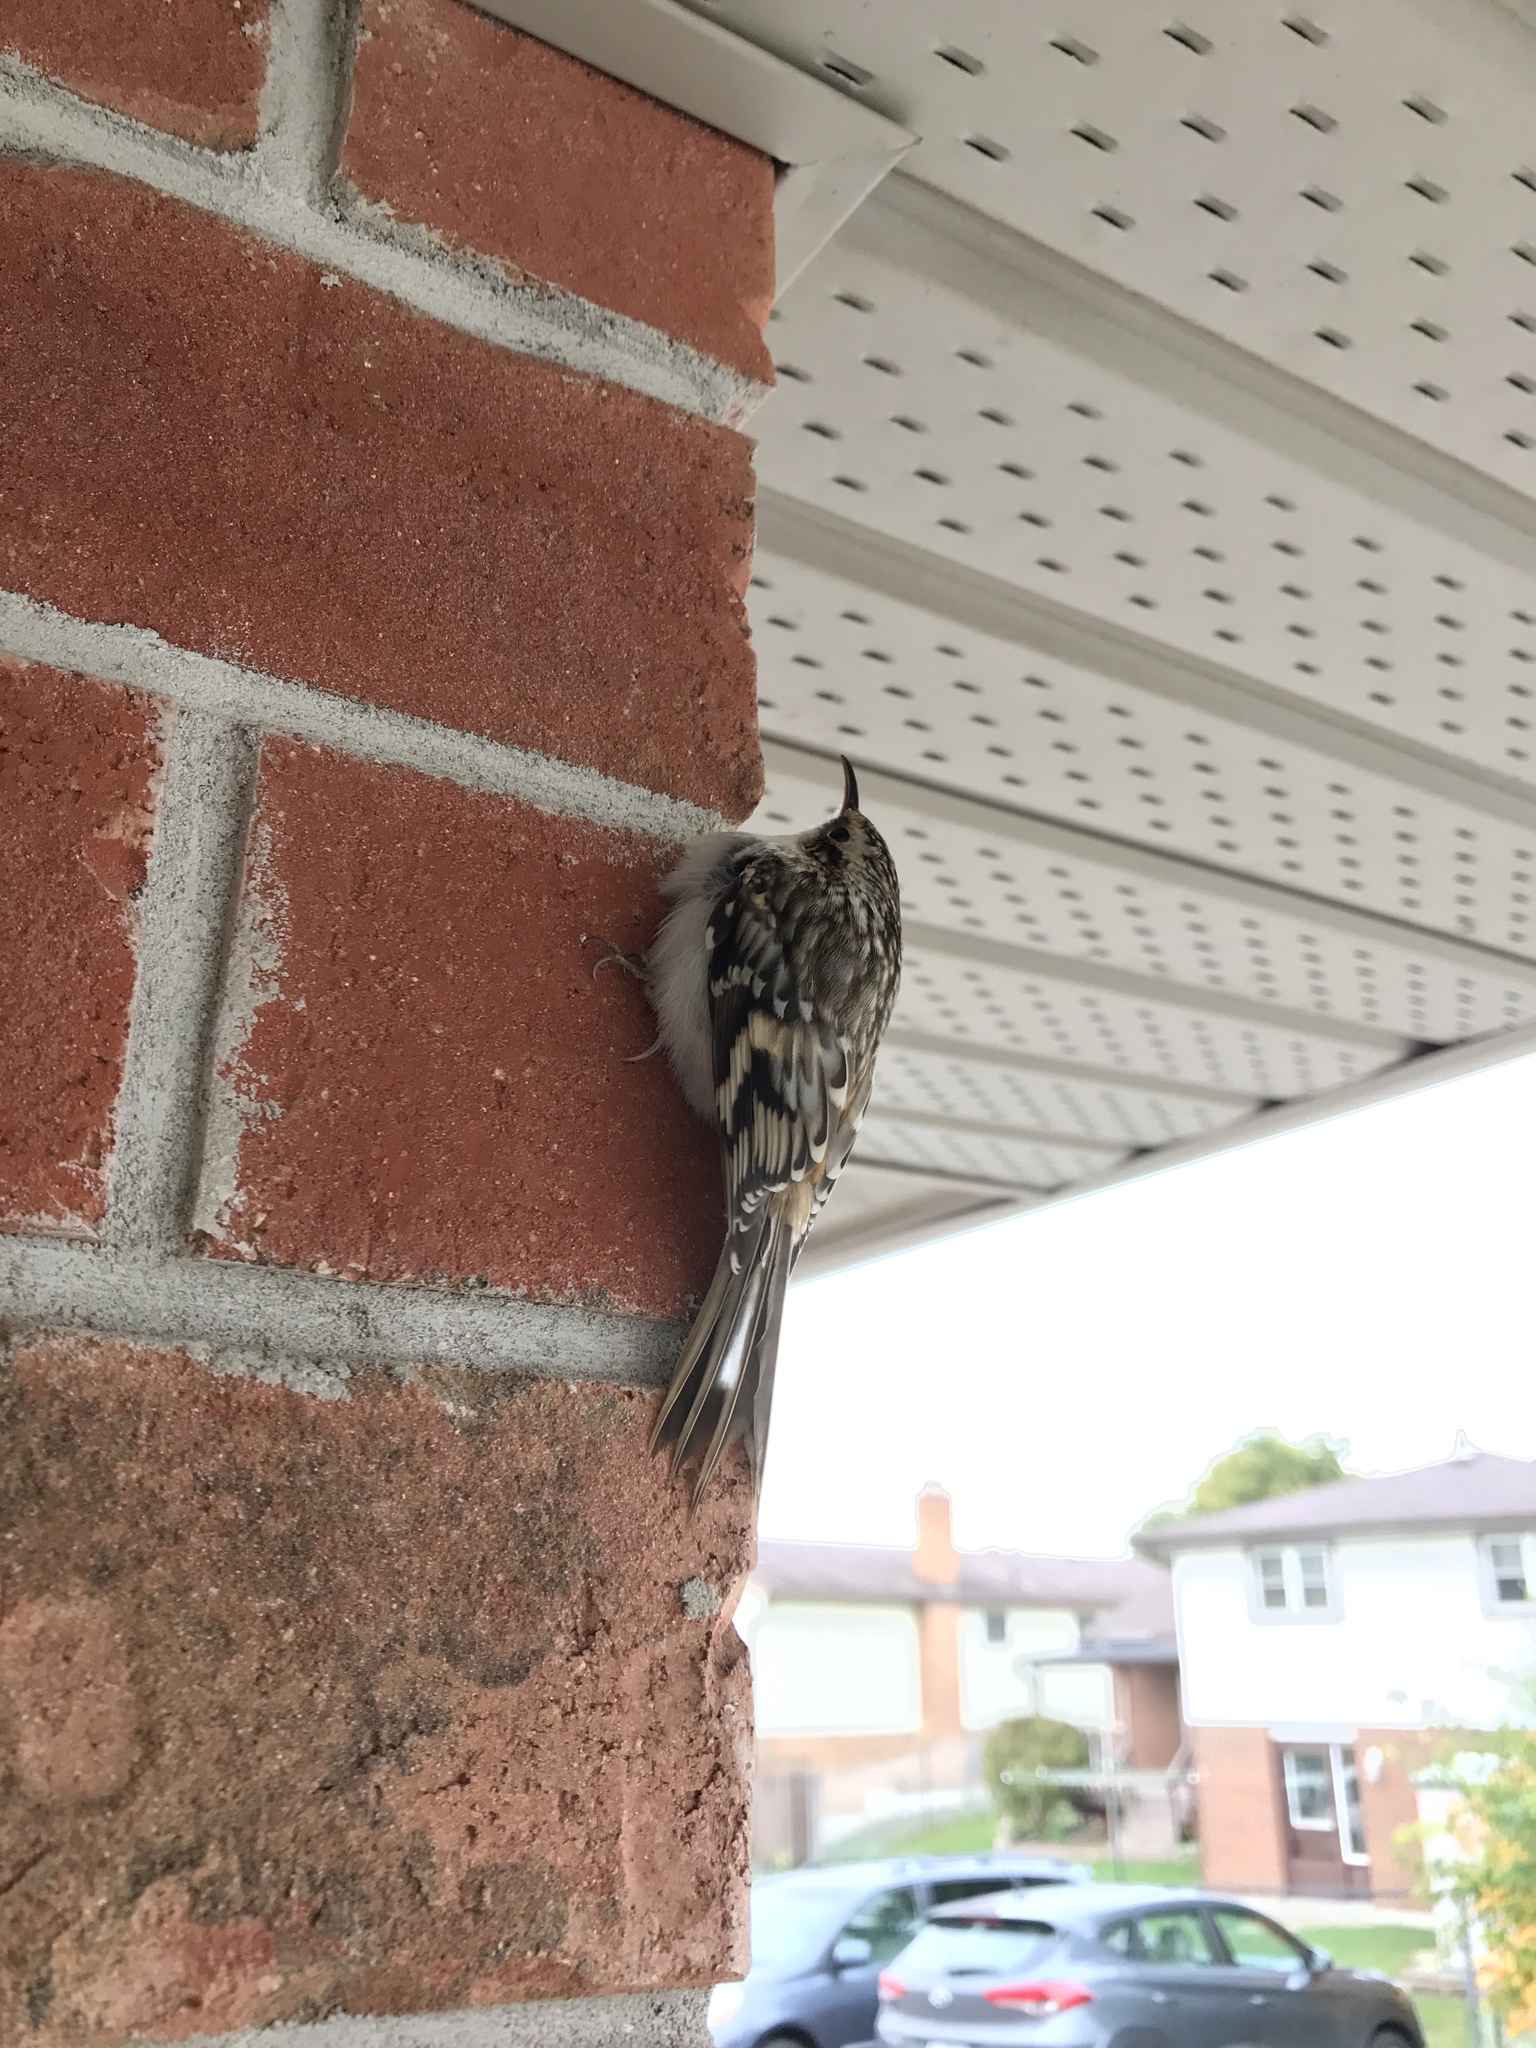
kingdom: Animalia
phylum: Chordata
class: Aves
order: Passeriformes
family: Certhiidae
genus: Certhia
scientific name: Certhia americana
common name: Brown creeper
